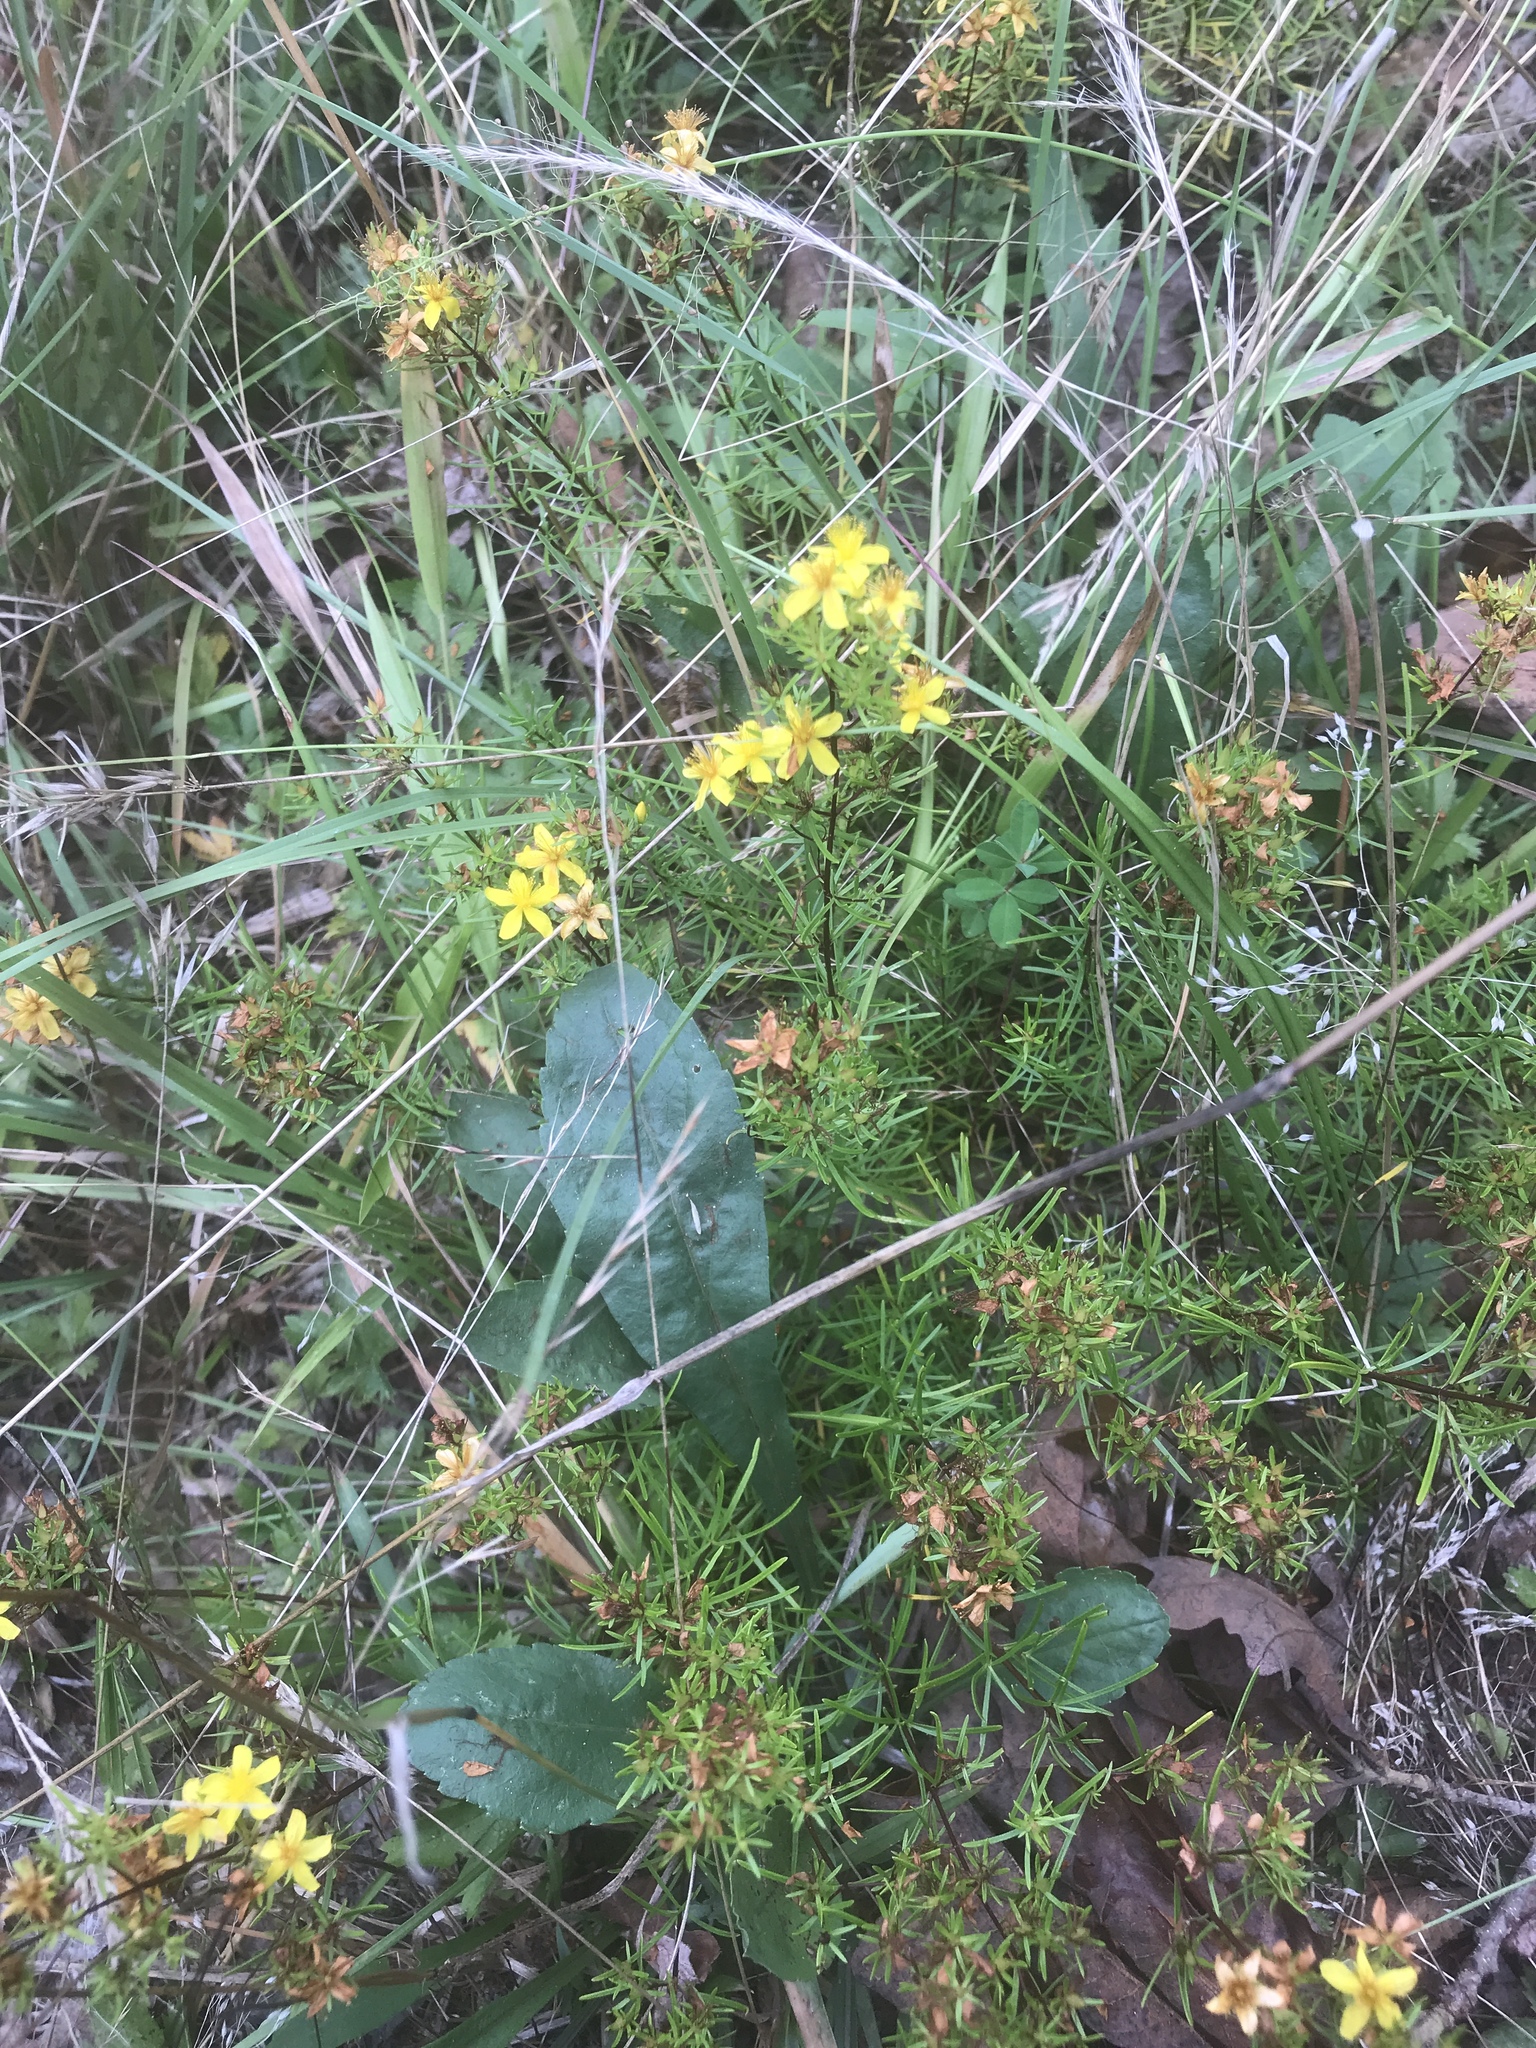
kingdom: Plantae
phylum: Tracheophyta
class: Magnoliopsida
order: Malpighiales
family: Hypericaceae
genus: Hypericum
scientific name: Hypericum lloydii
